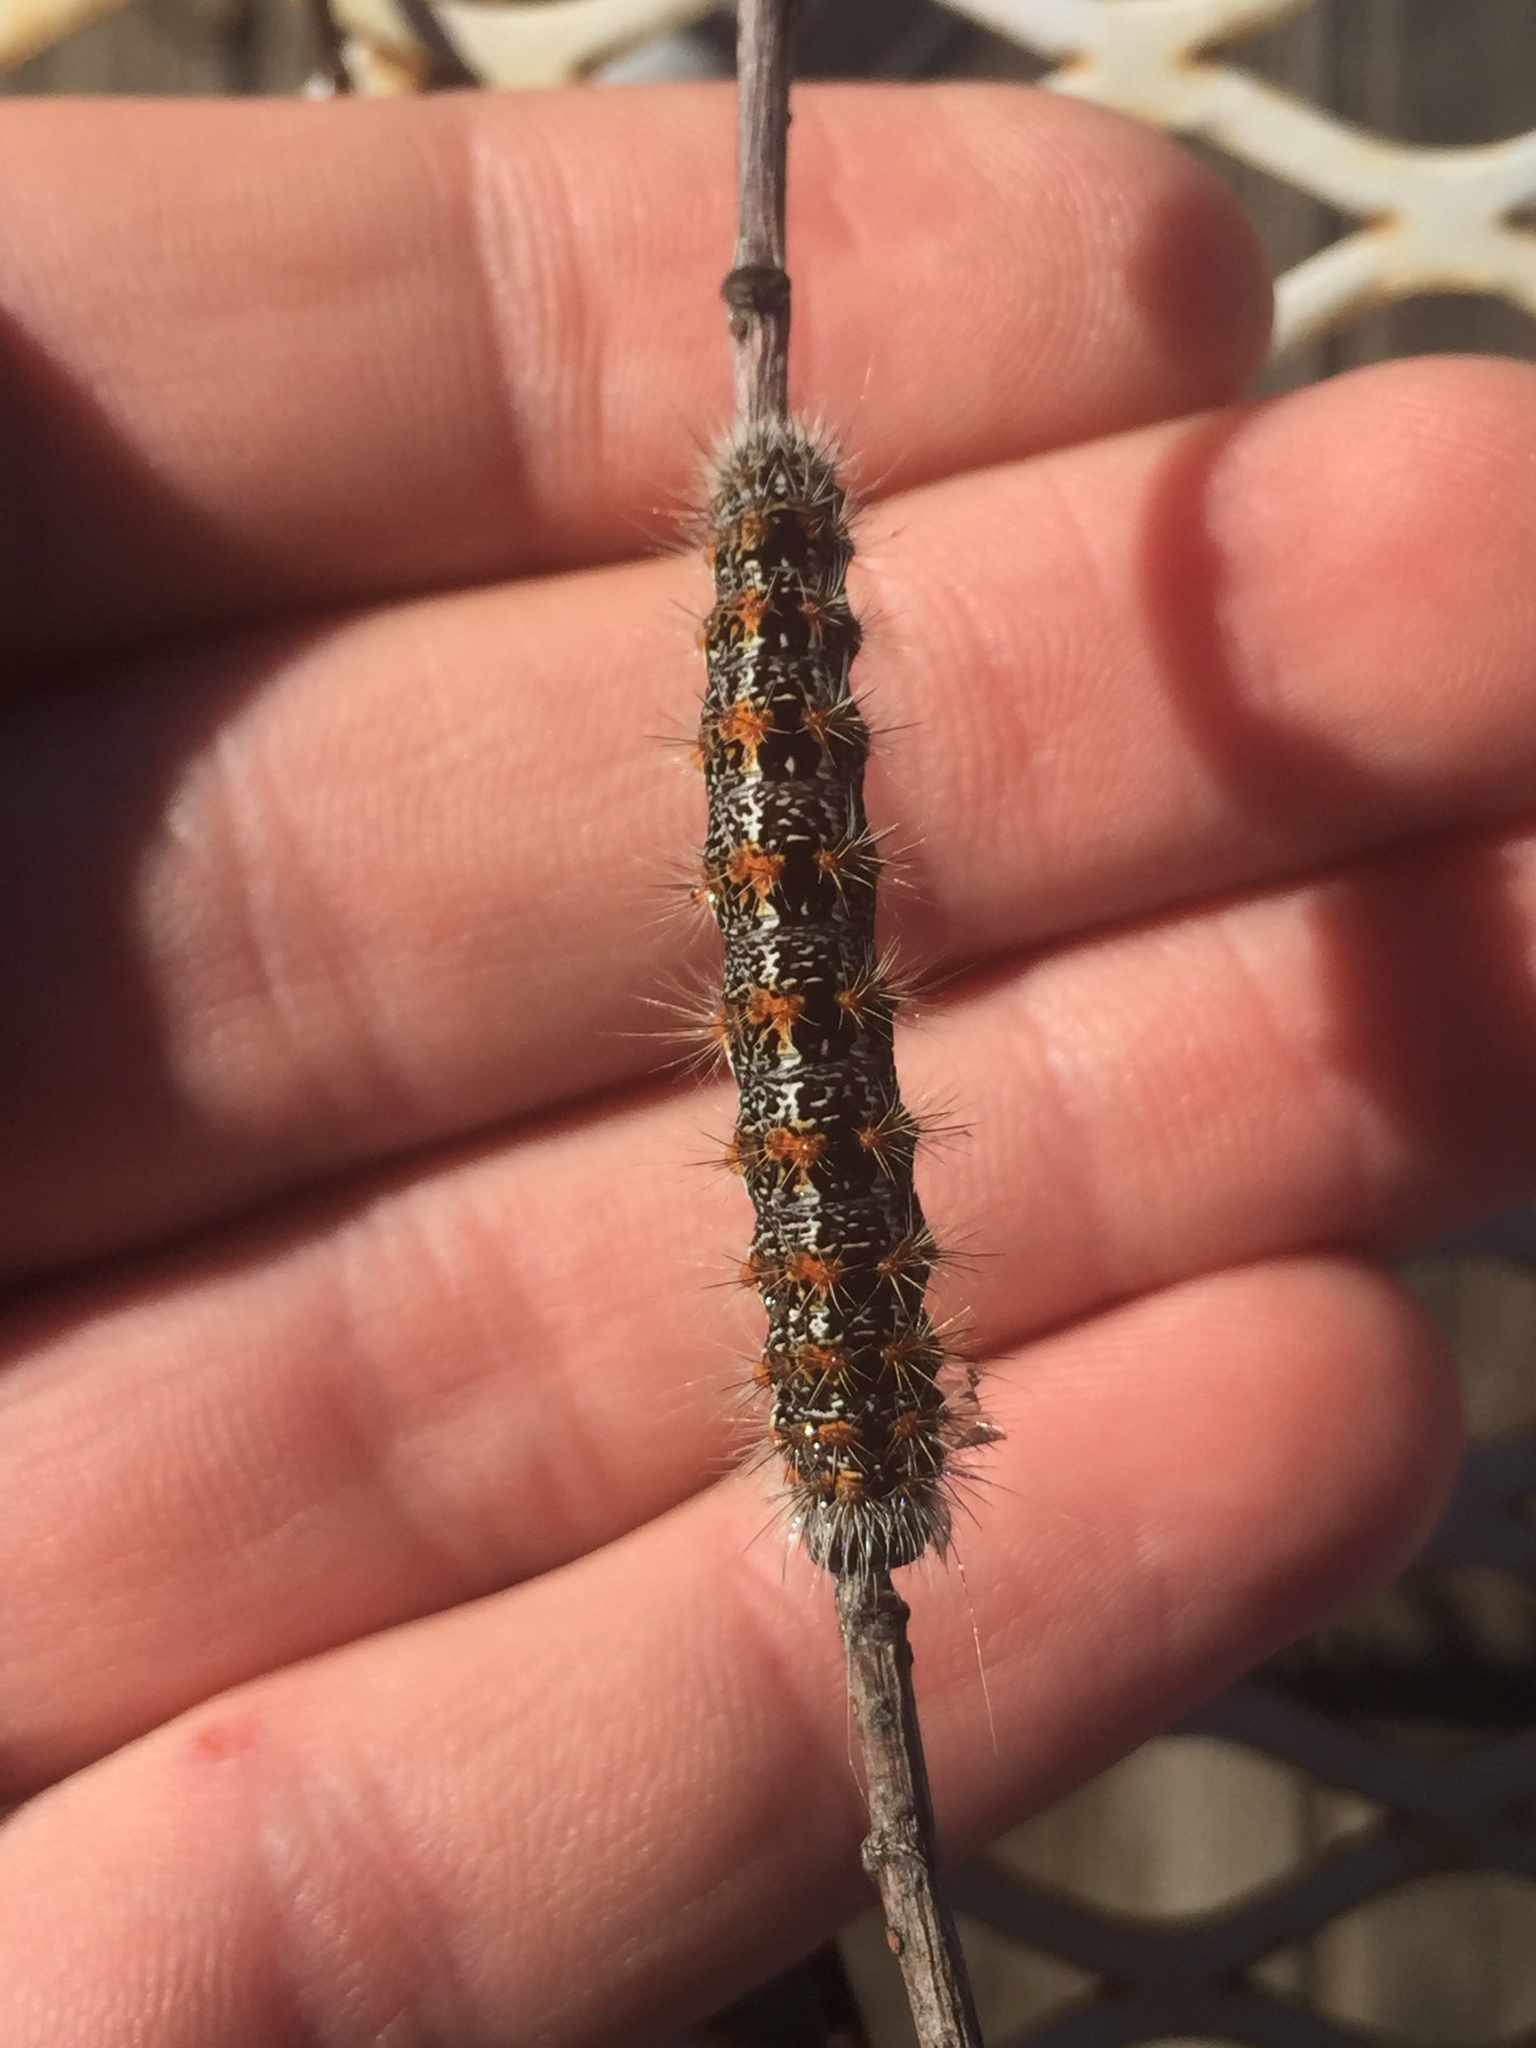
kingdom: Animalia
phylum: Arthropoda
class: Insecta
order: Lepidoptera
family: Noctuidae
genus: Acronicta
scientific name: Acronicta insularis
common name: Henry's marsh moth
